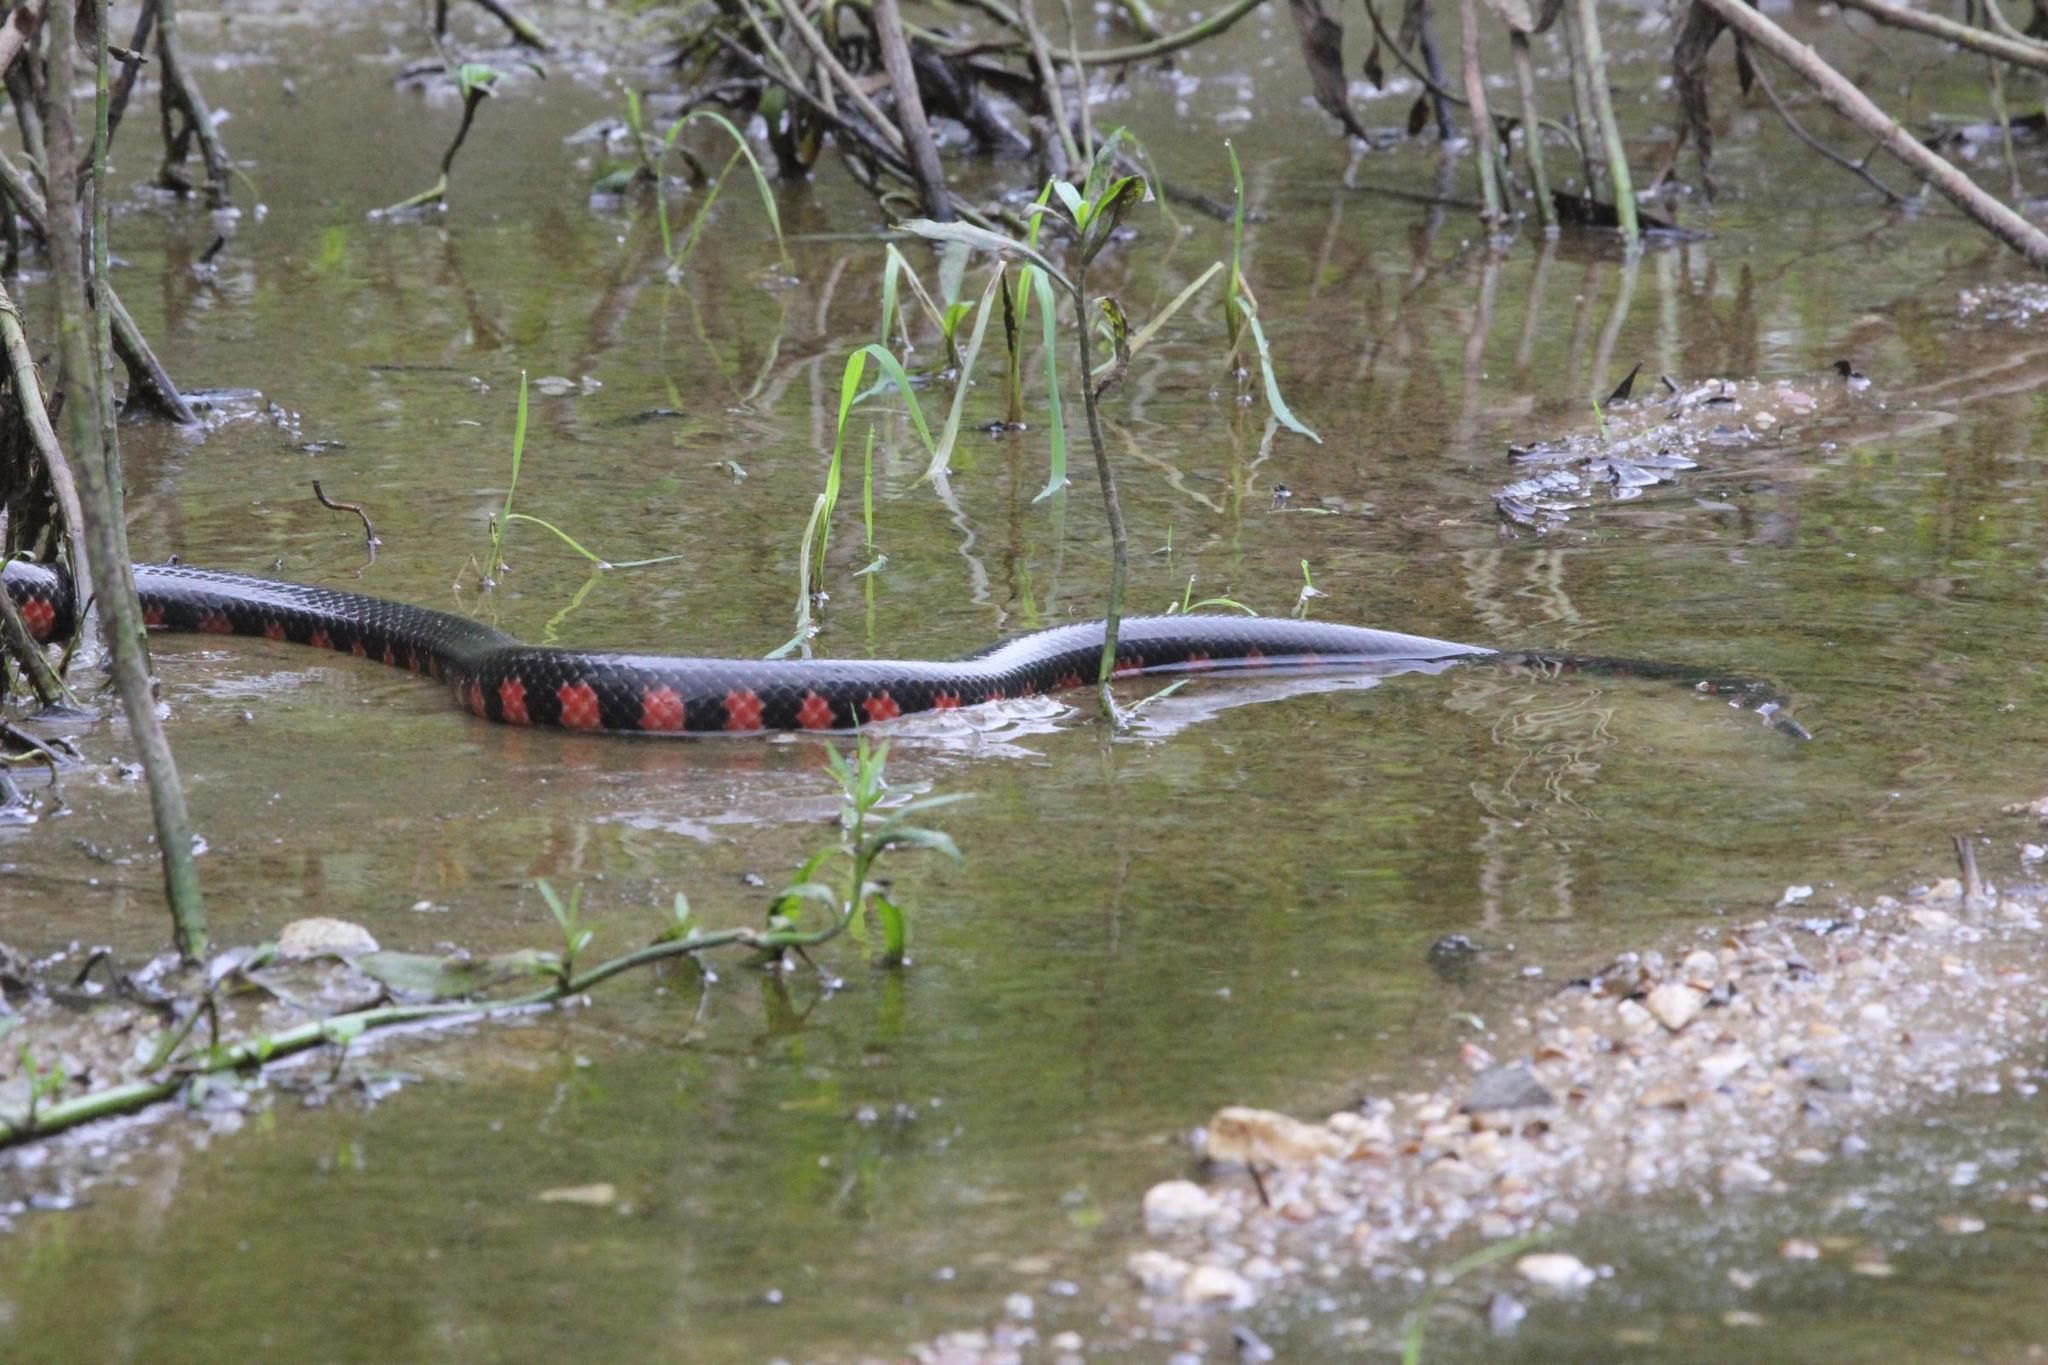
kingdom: Animalia
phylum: Chordata
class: Squamata
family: Colubridae
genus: Farancia
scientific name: Farancia abacura
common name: Mud snake
